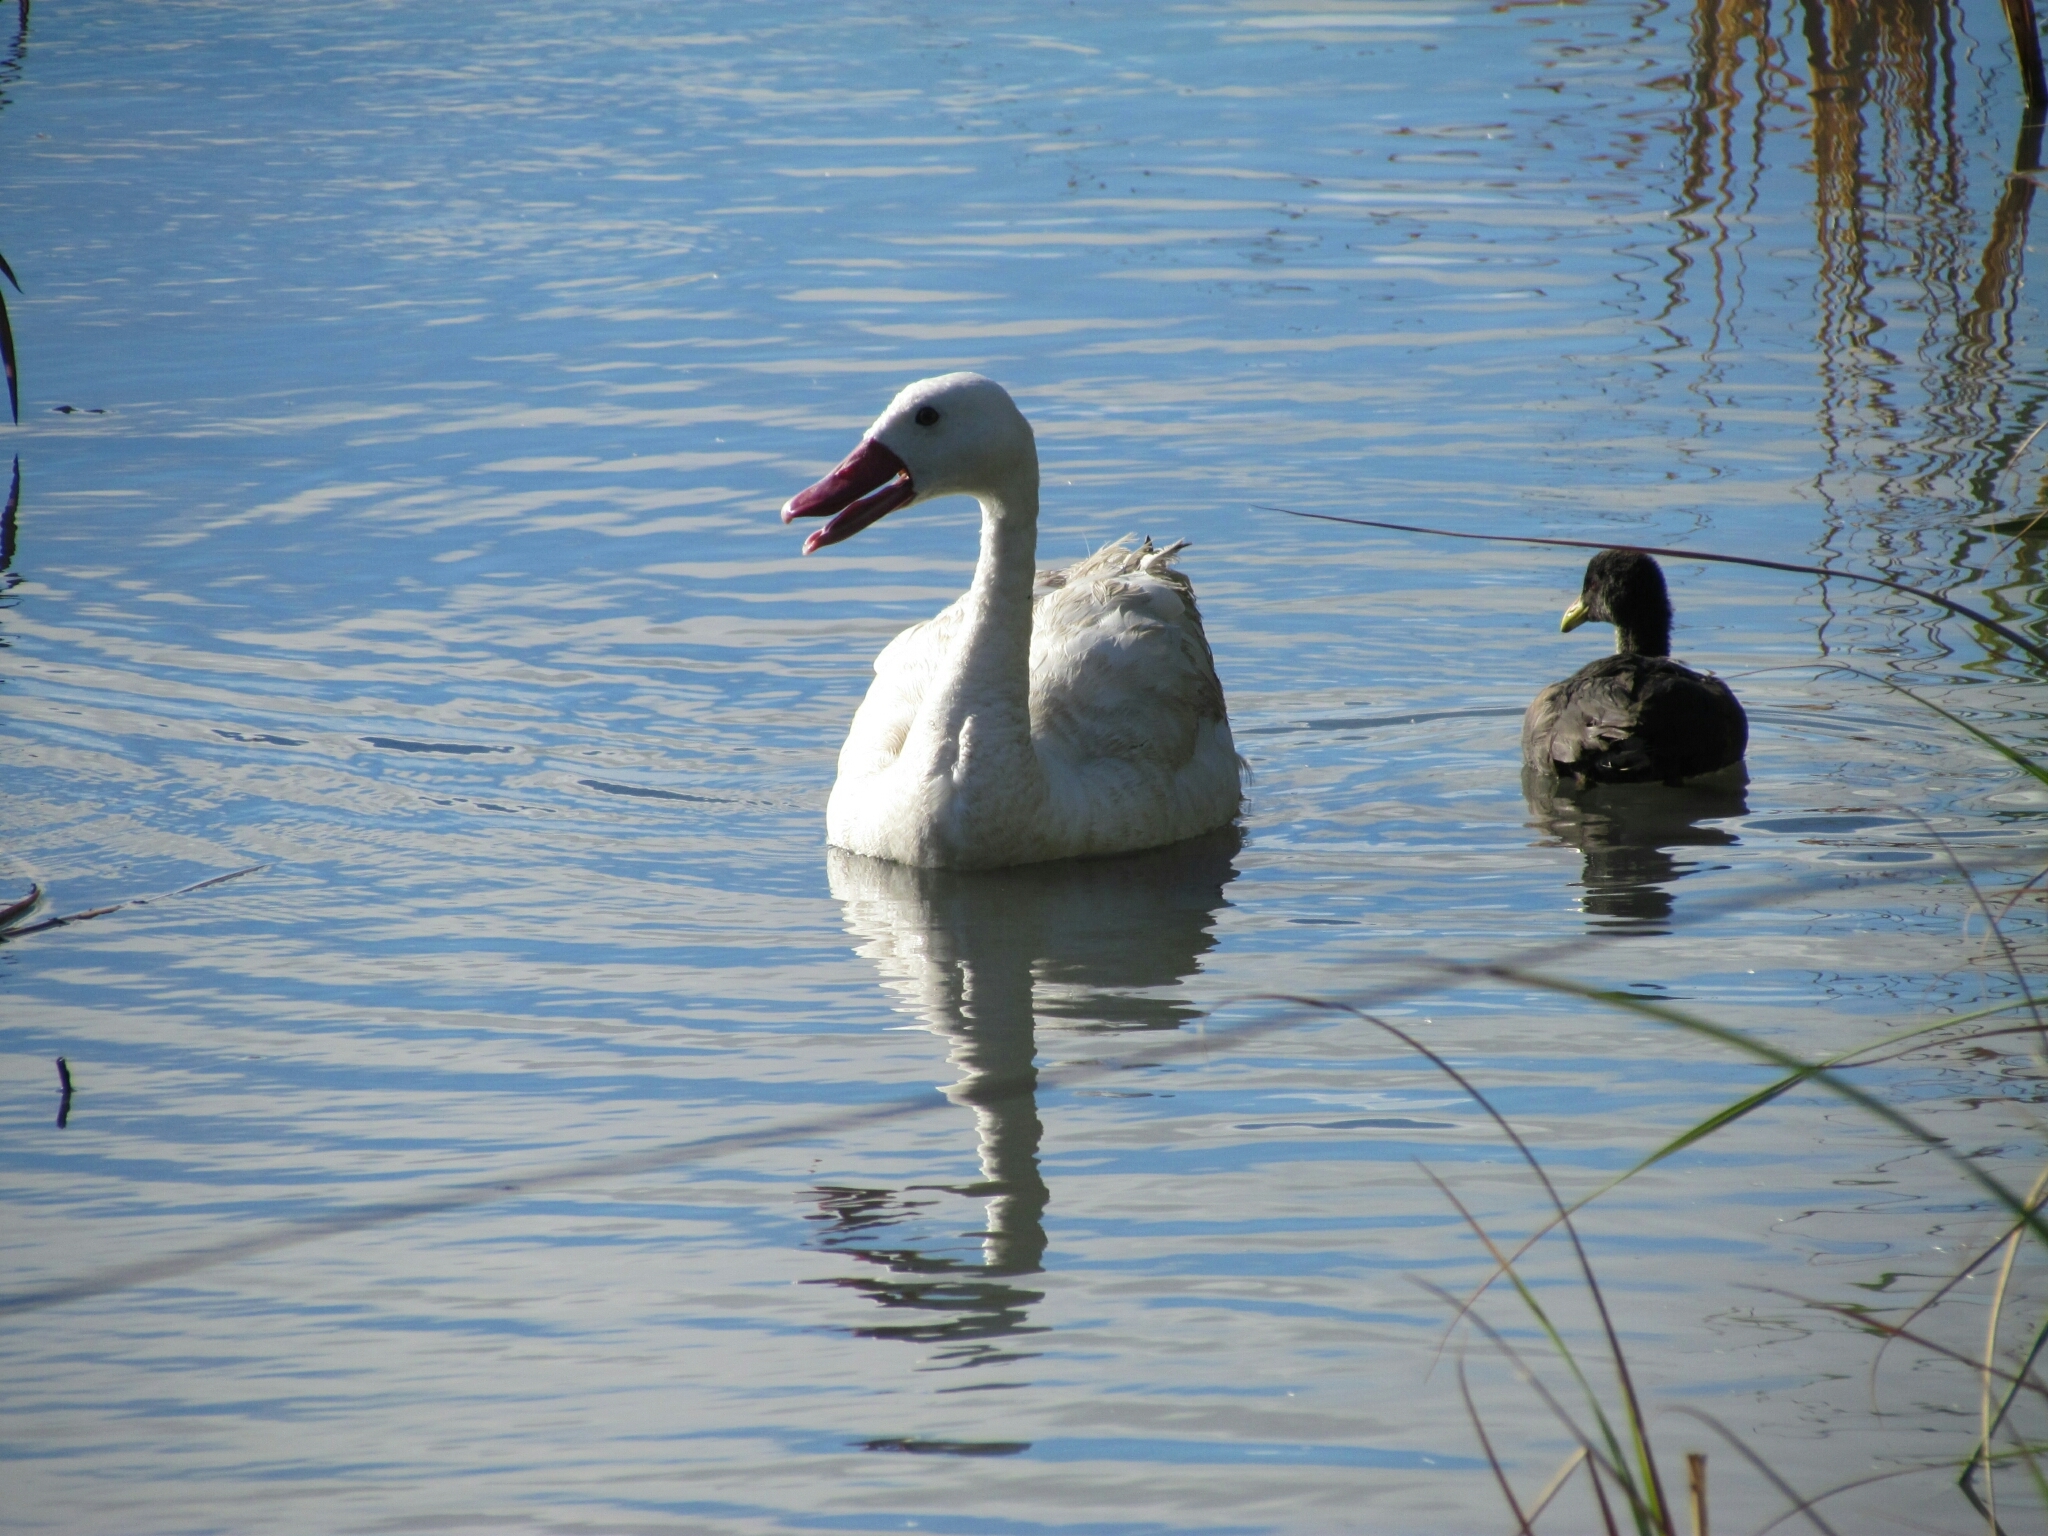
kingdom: Animalia
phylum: Chordata
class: Aves
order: Anseriformes
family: Anatidae
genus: Coscoroba
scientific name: Coscoroba coscoroba
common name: Coscoroba swan
